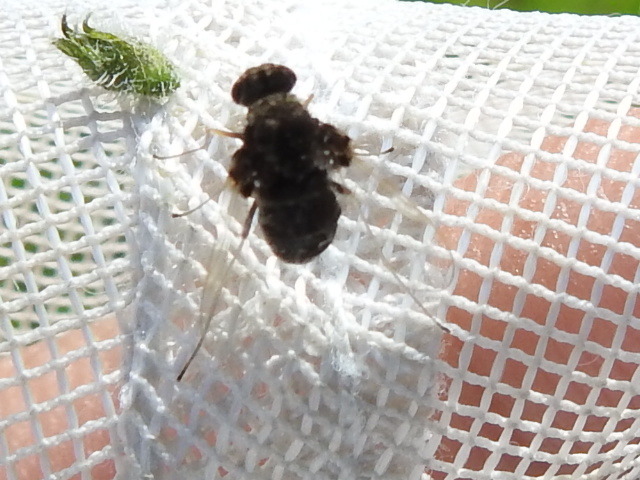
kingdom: Animalia
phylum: Arthropoda
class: Insecta
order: Diptera
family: Rhagionidae
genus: Chrysopilus
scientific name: Chrysopilus basilaris
